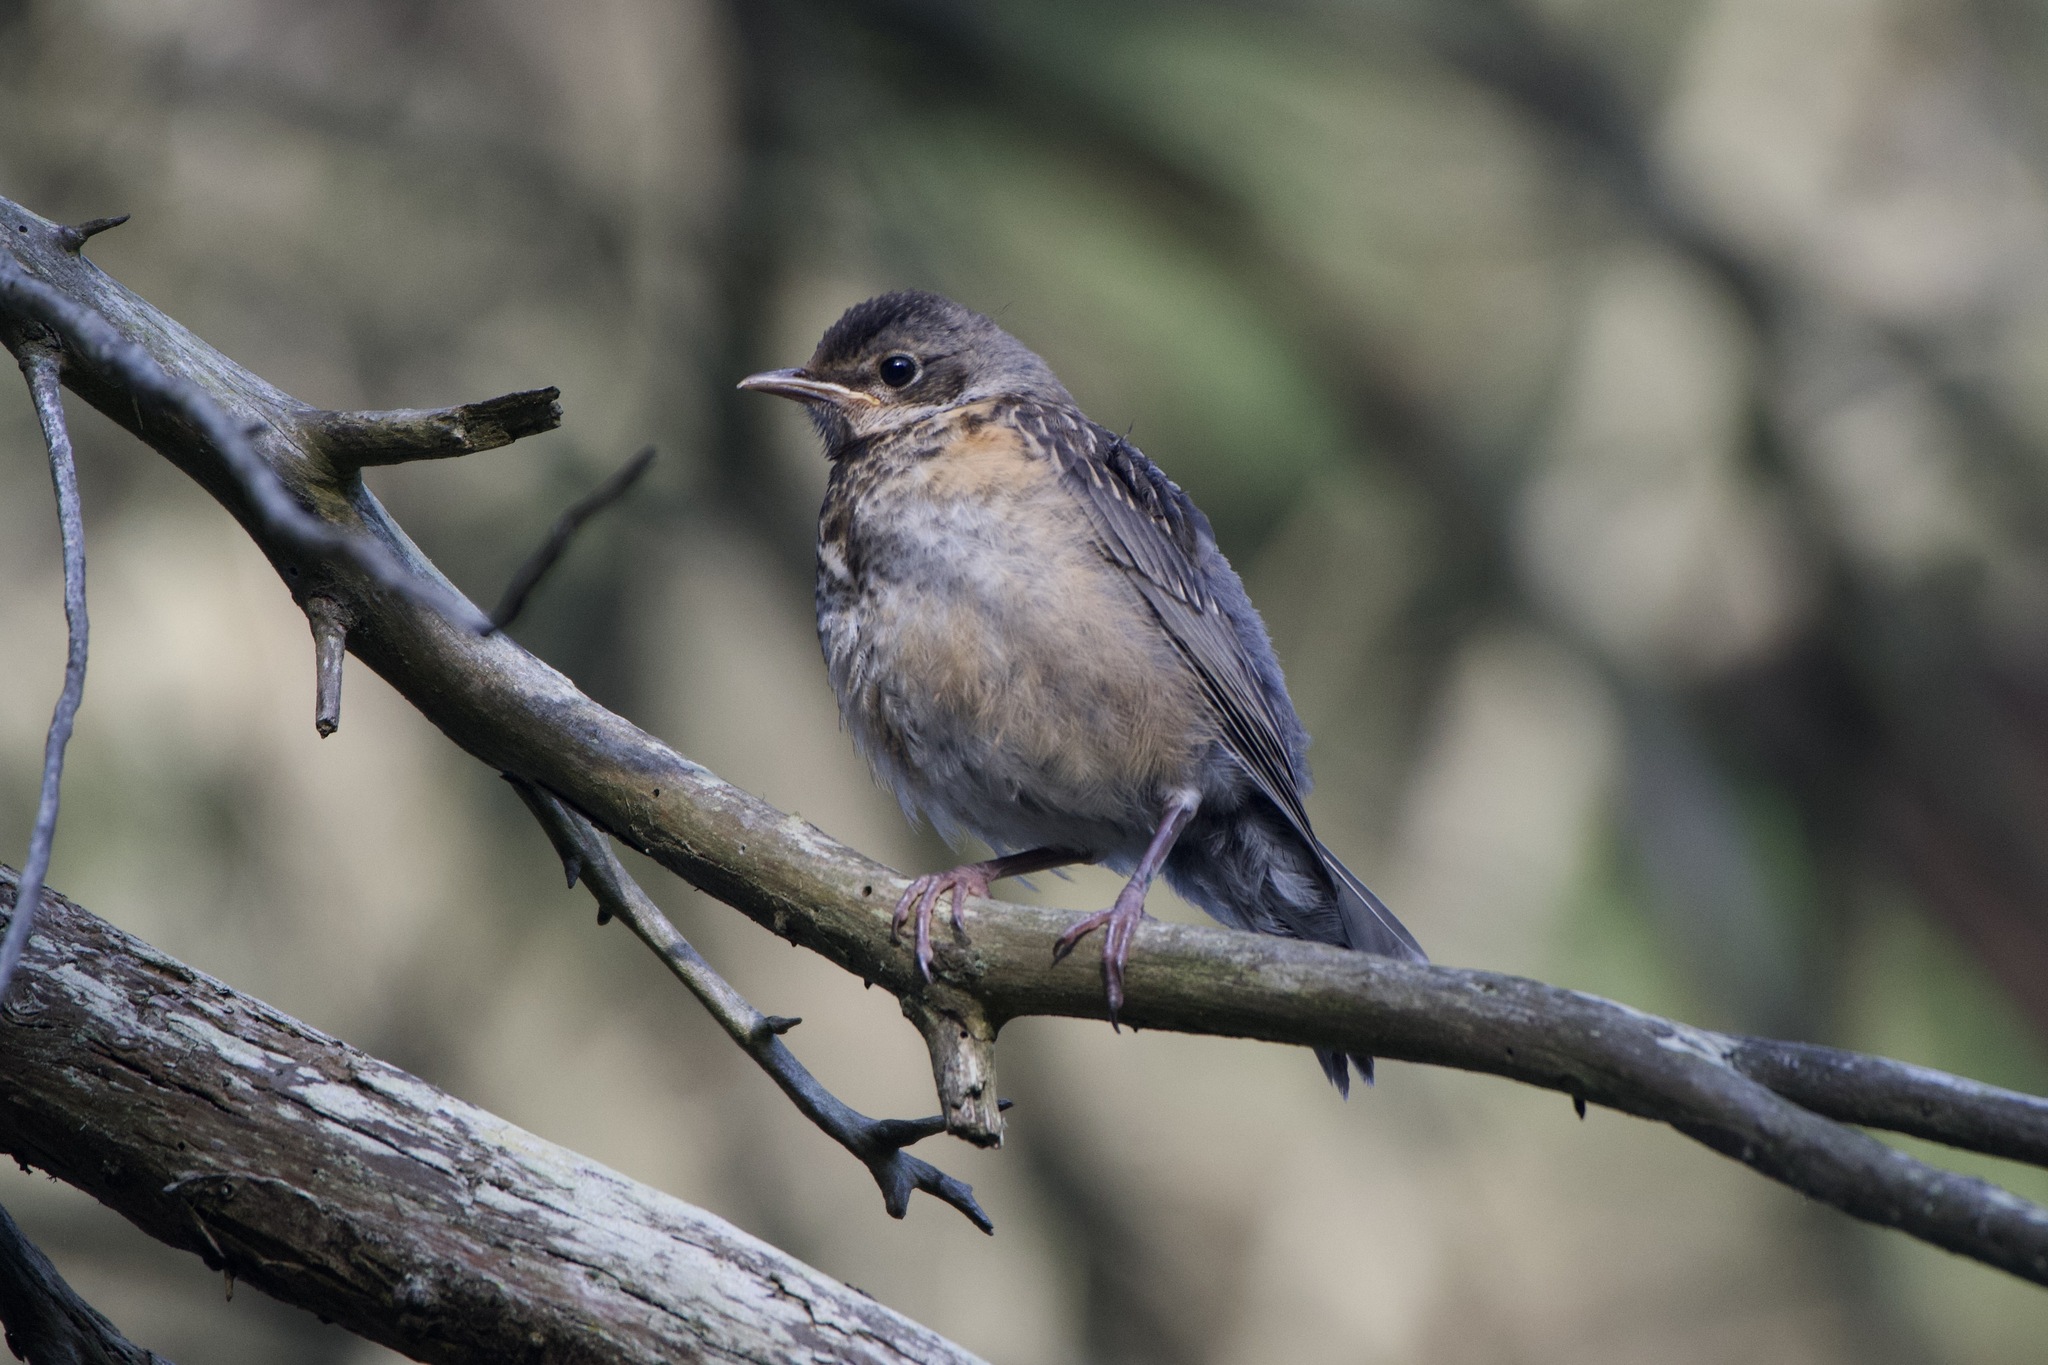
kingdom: Animalia
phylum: Chordata
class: Aves
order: Passeriformes
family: Turdidae
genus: Turdus
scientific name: Turdus migratorius
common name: American robin
